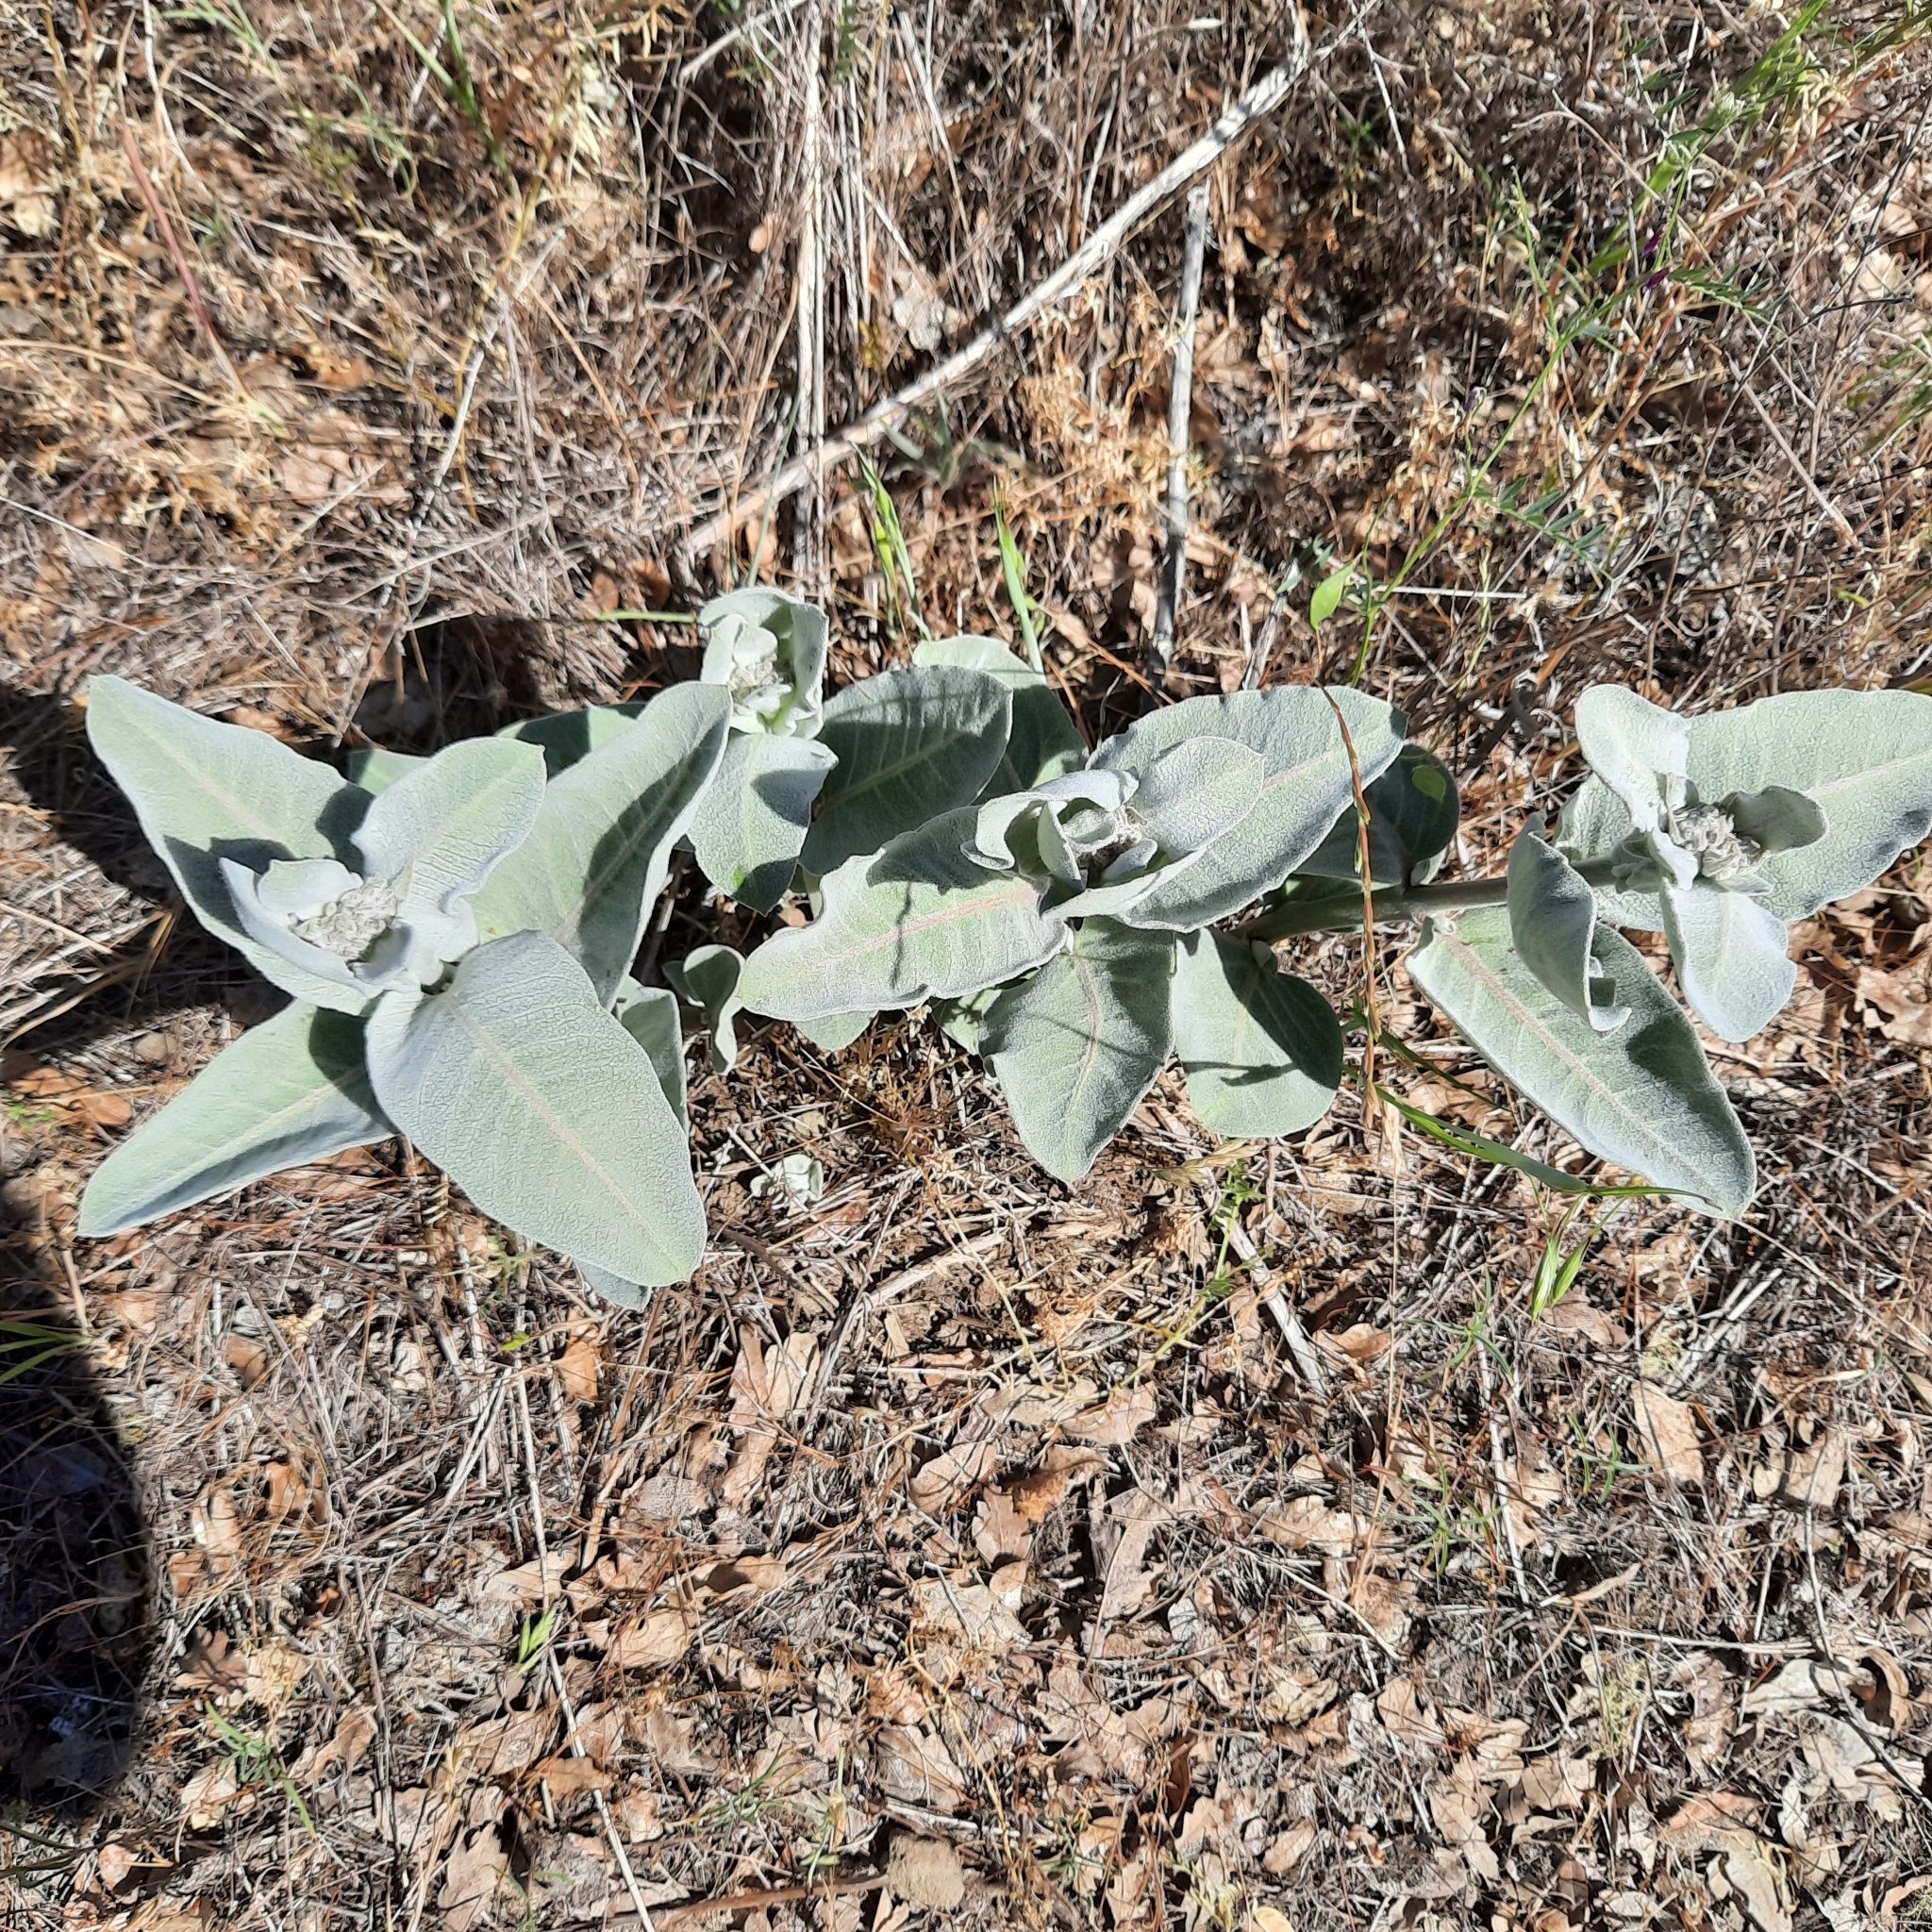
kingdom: Plantae
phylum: Tracheophyta
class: Magnoliopsida
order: Gentianales
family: Apocynaceae
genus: Asclepias
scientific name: Asclepias eriocarpa
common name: Indian milkweed
